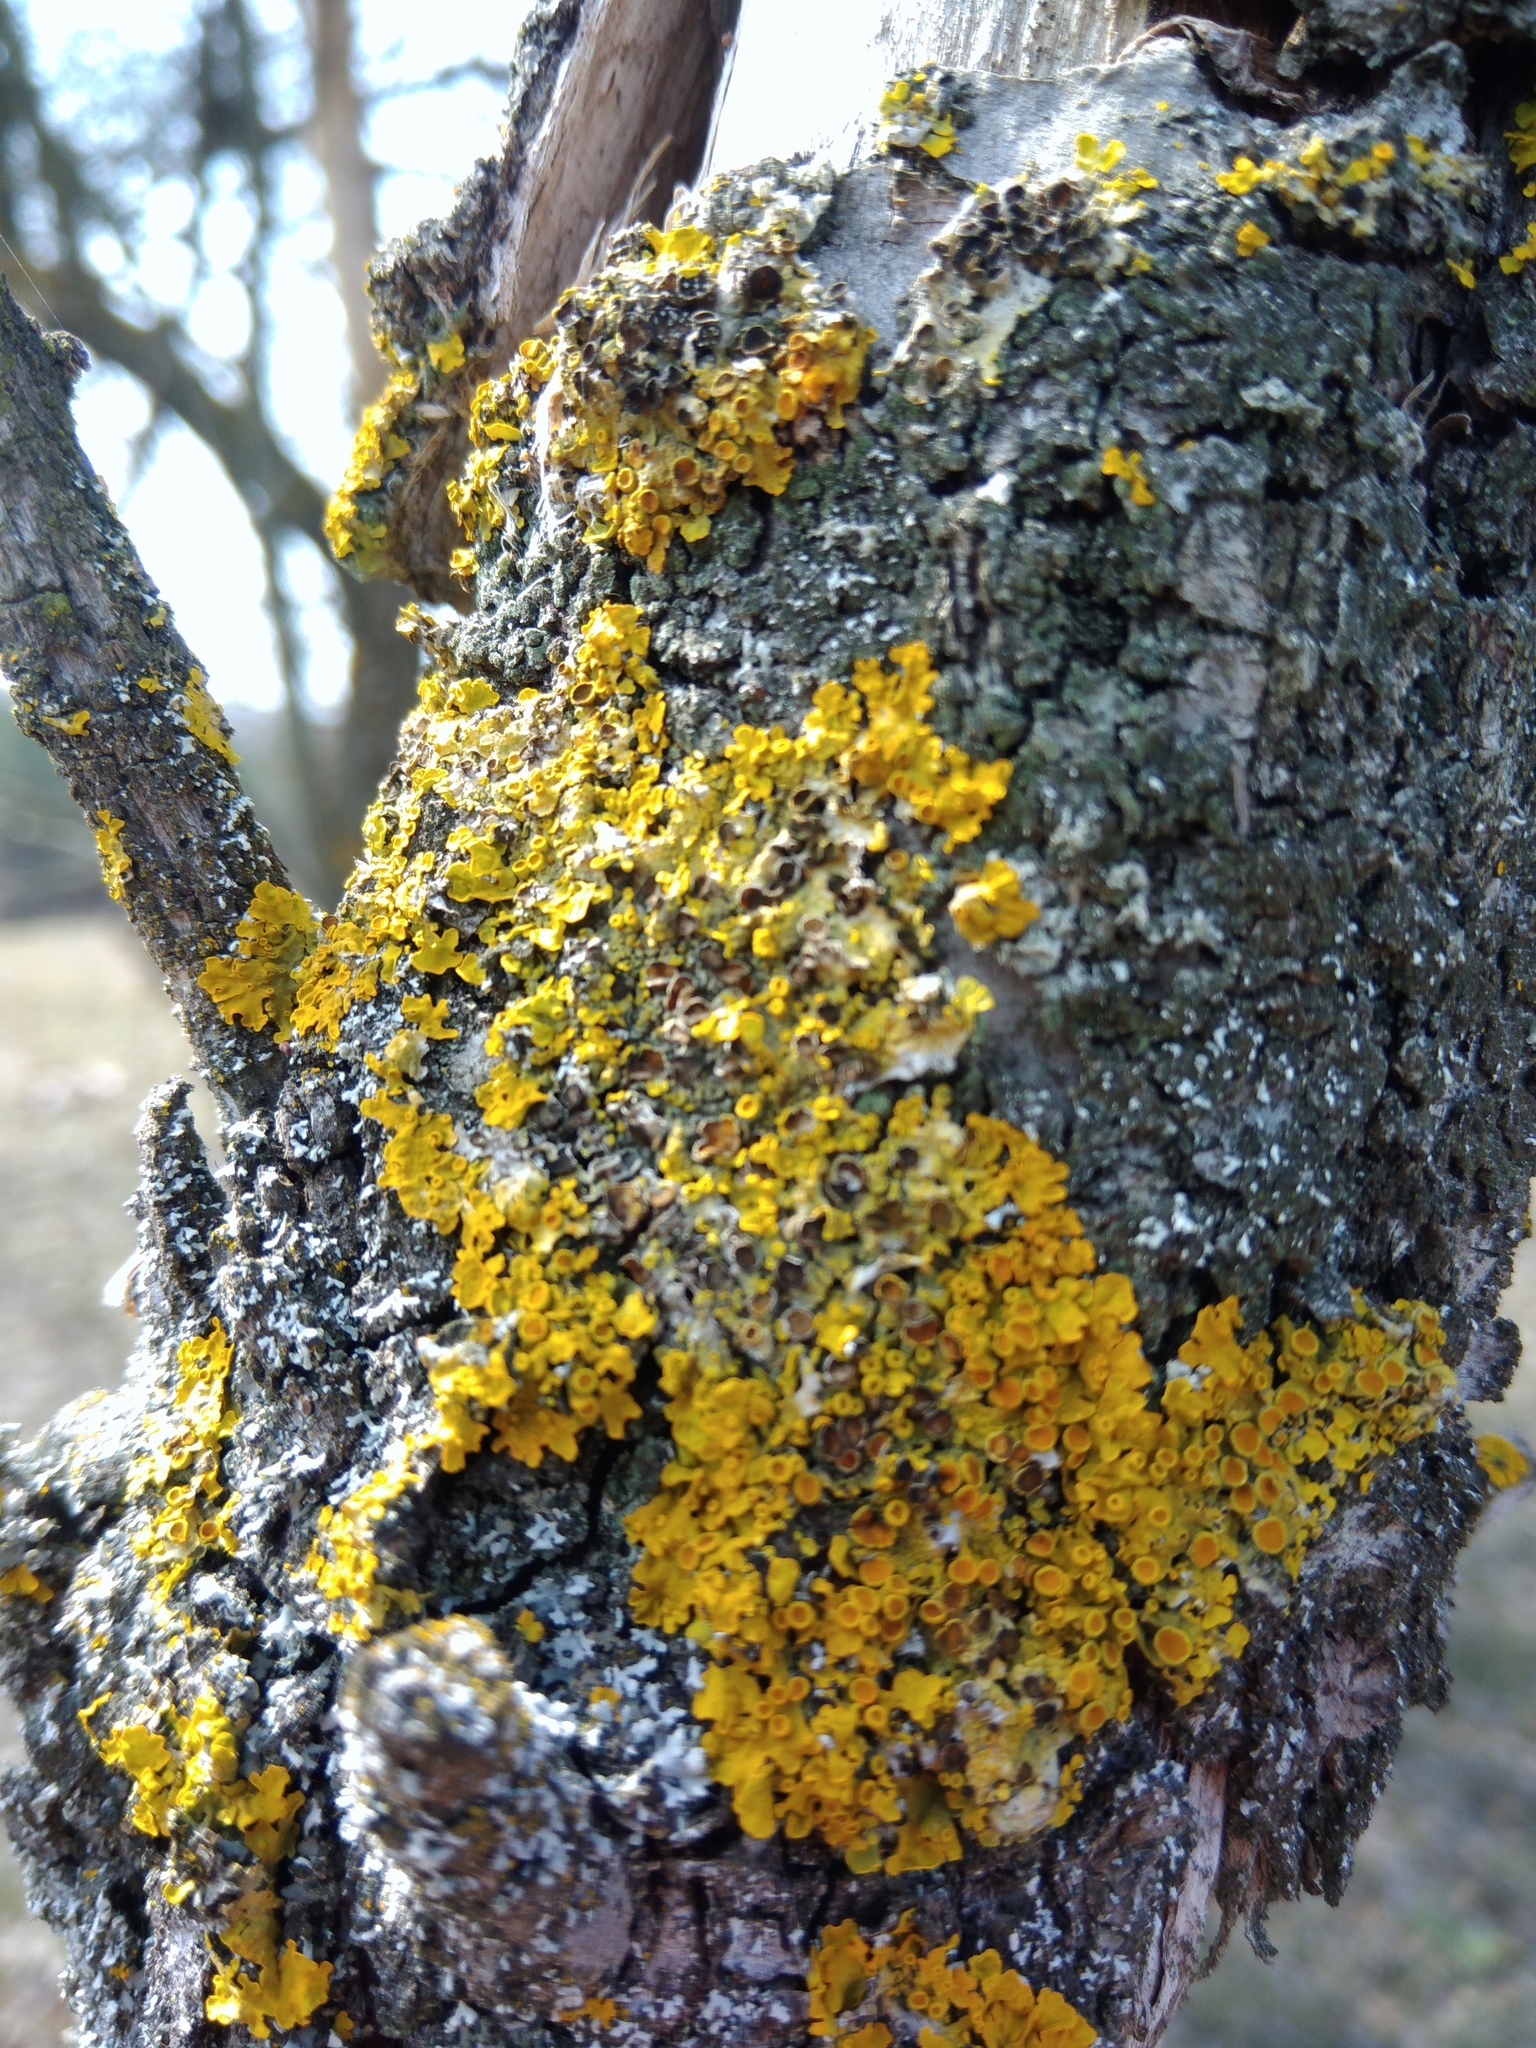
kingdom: Fungi
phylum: Ascomycota
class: Lecanoromycetes
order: Teloschistales
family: Teloschistaceae
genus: Xanthoria
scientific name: Xanthoria parietina
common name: Common orange lichen
